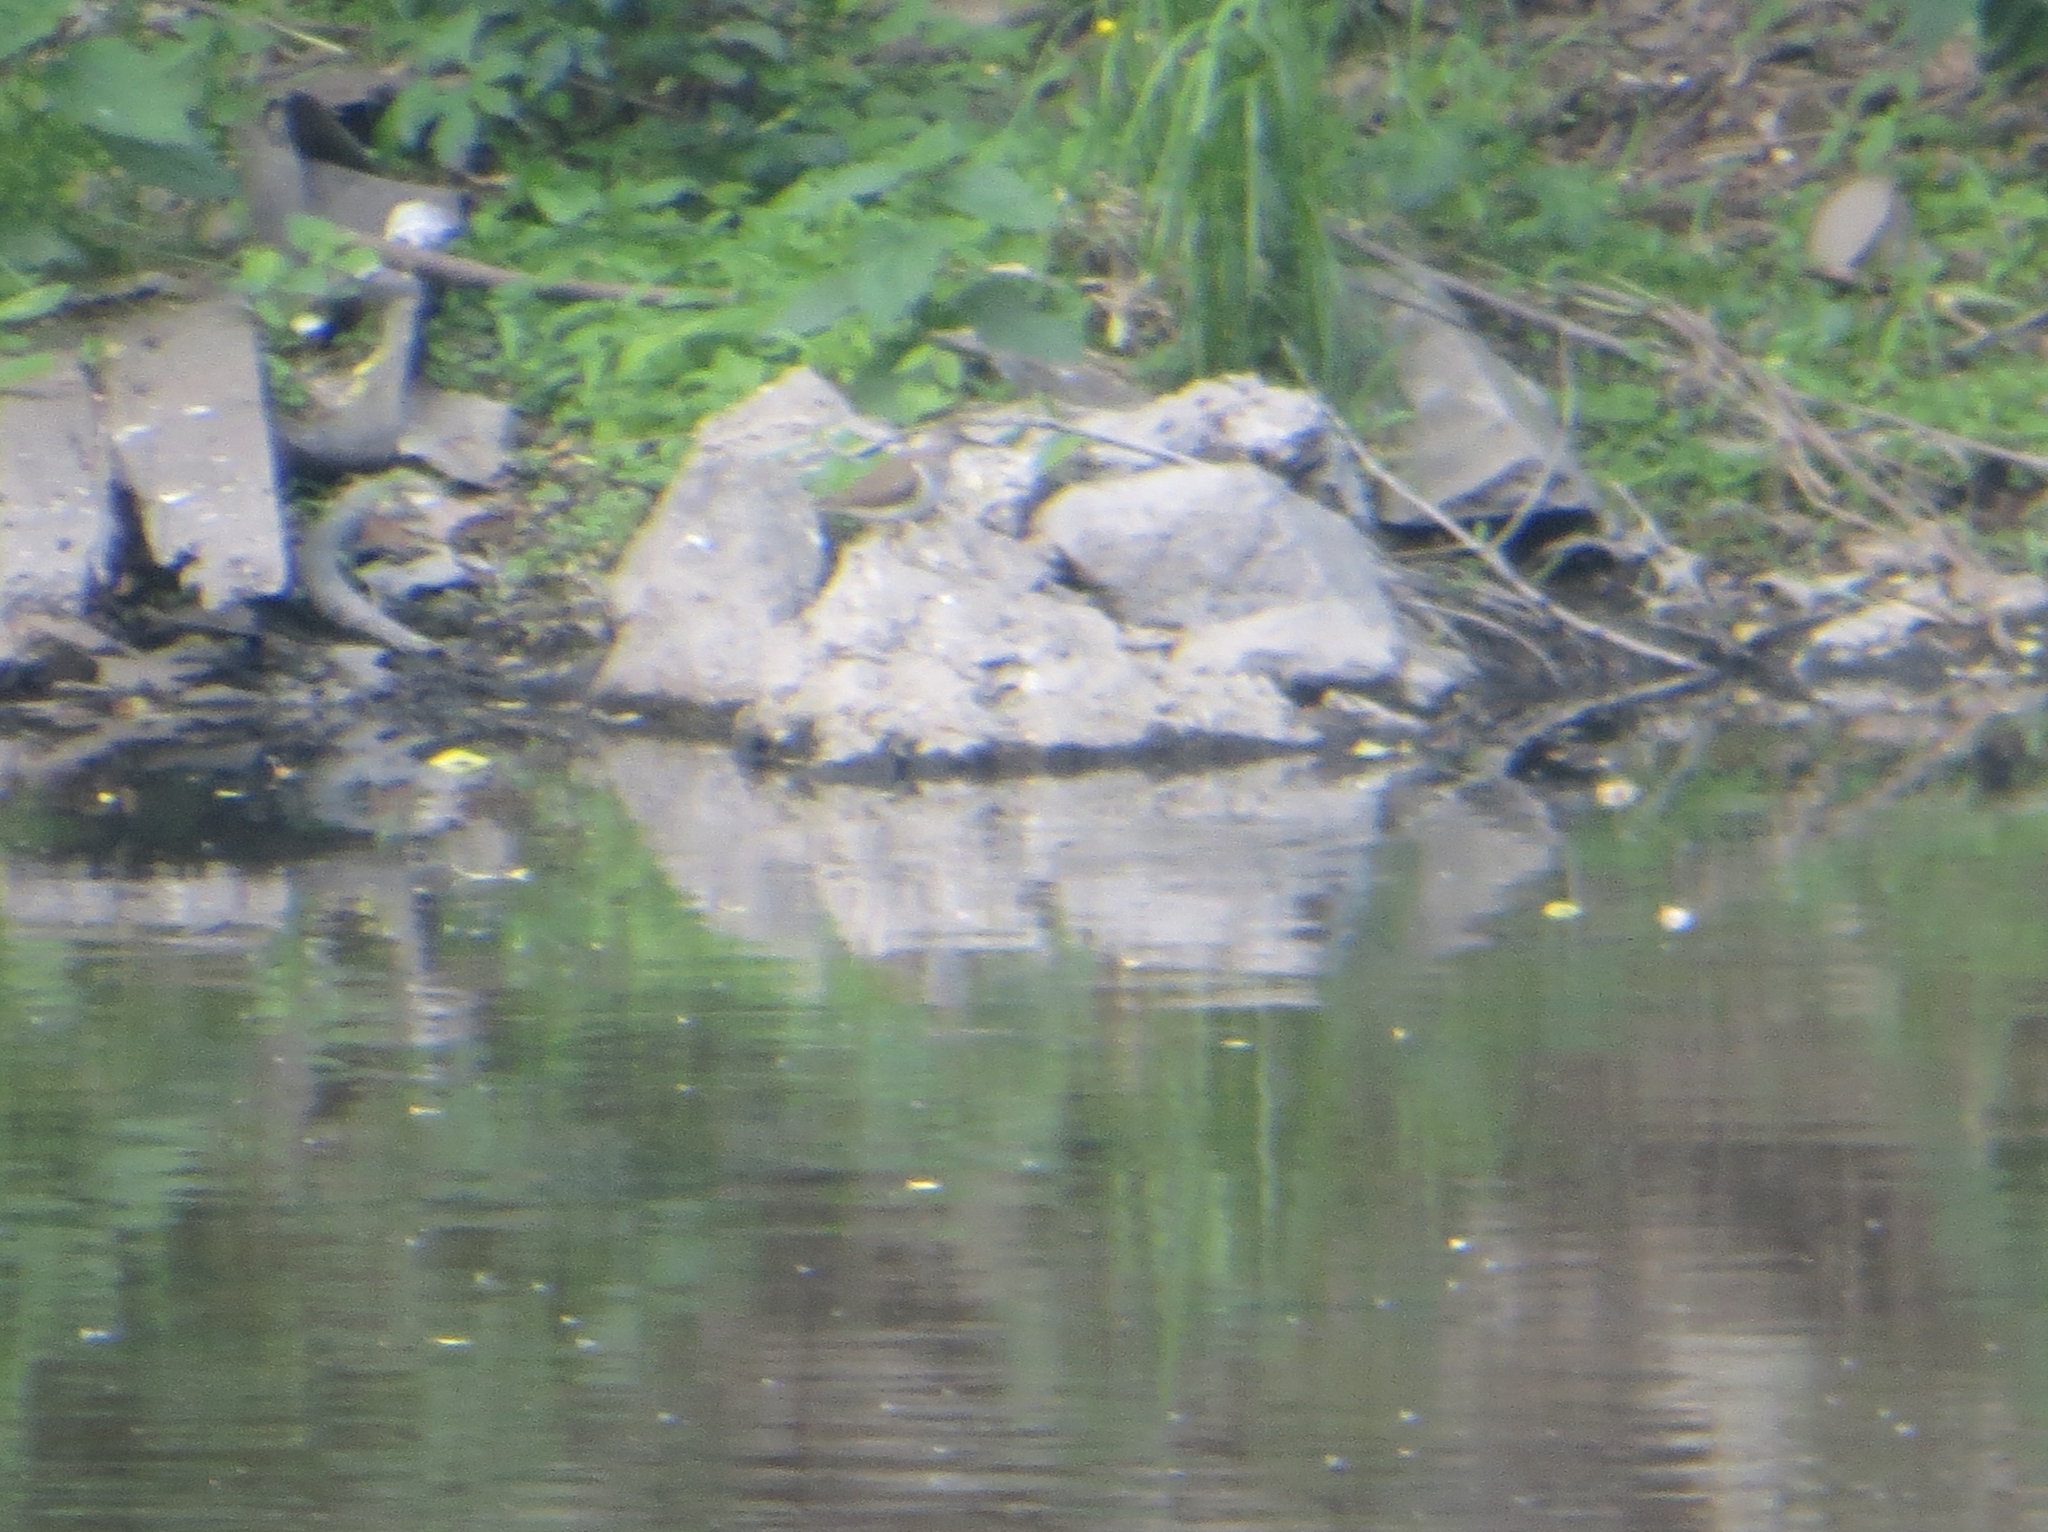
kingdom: Animalia
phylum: Chordata
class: Aves
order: Charadriiformes
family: Scolopacidae
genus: Actitis
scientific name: Actitis hypoleucos
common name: Common sandpiper
